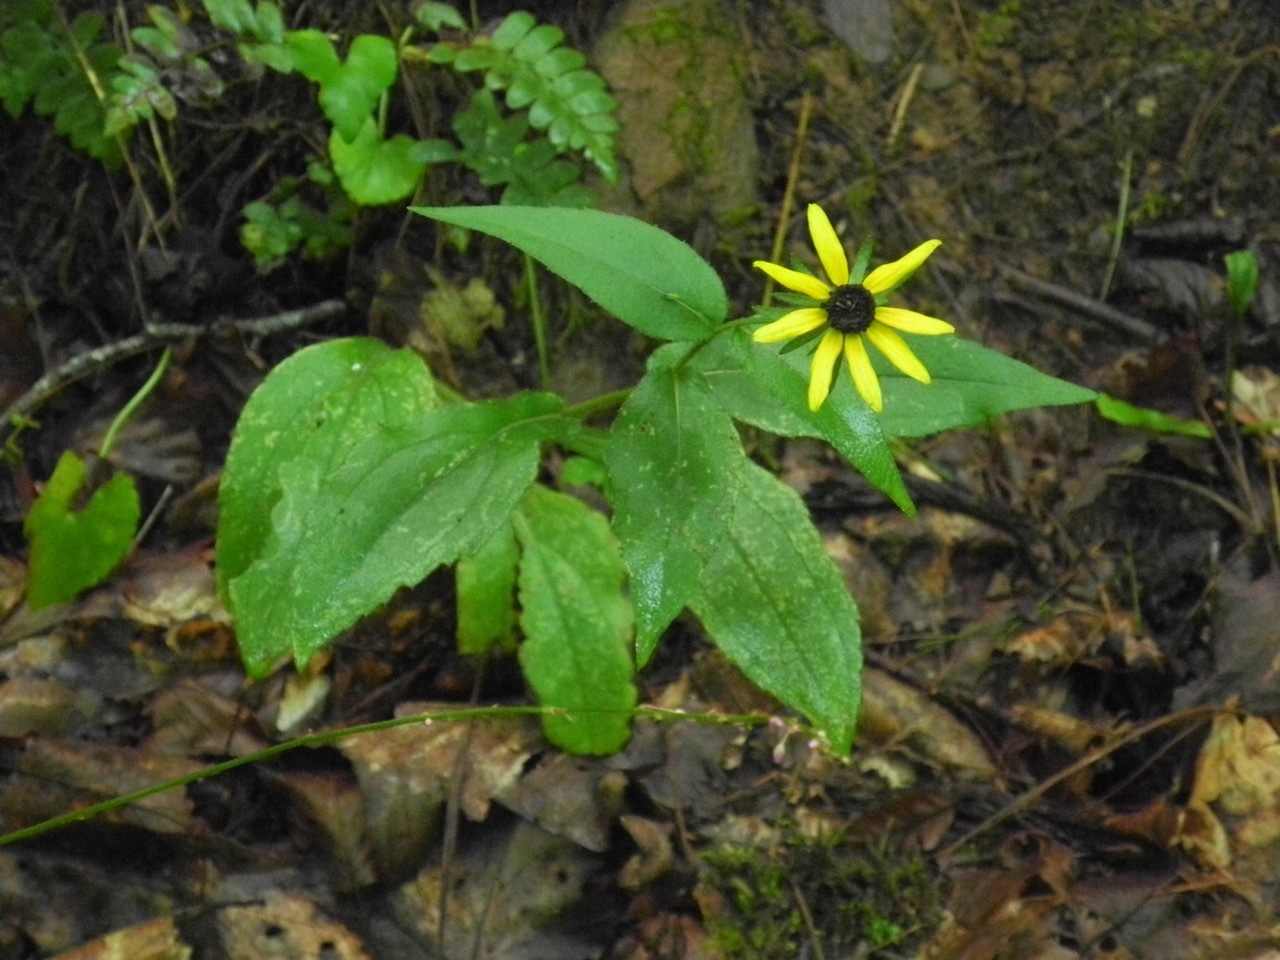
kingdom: Plantae
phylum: Tracheophyta
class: Magnoliopsida
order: Asterales
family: Asteraceae
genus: Rudbeckia
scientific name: Rudbeckia hirta
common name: Black-eyed-susan
